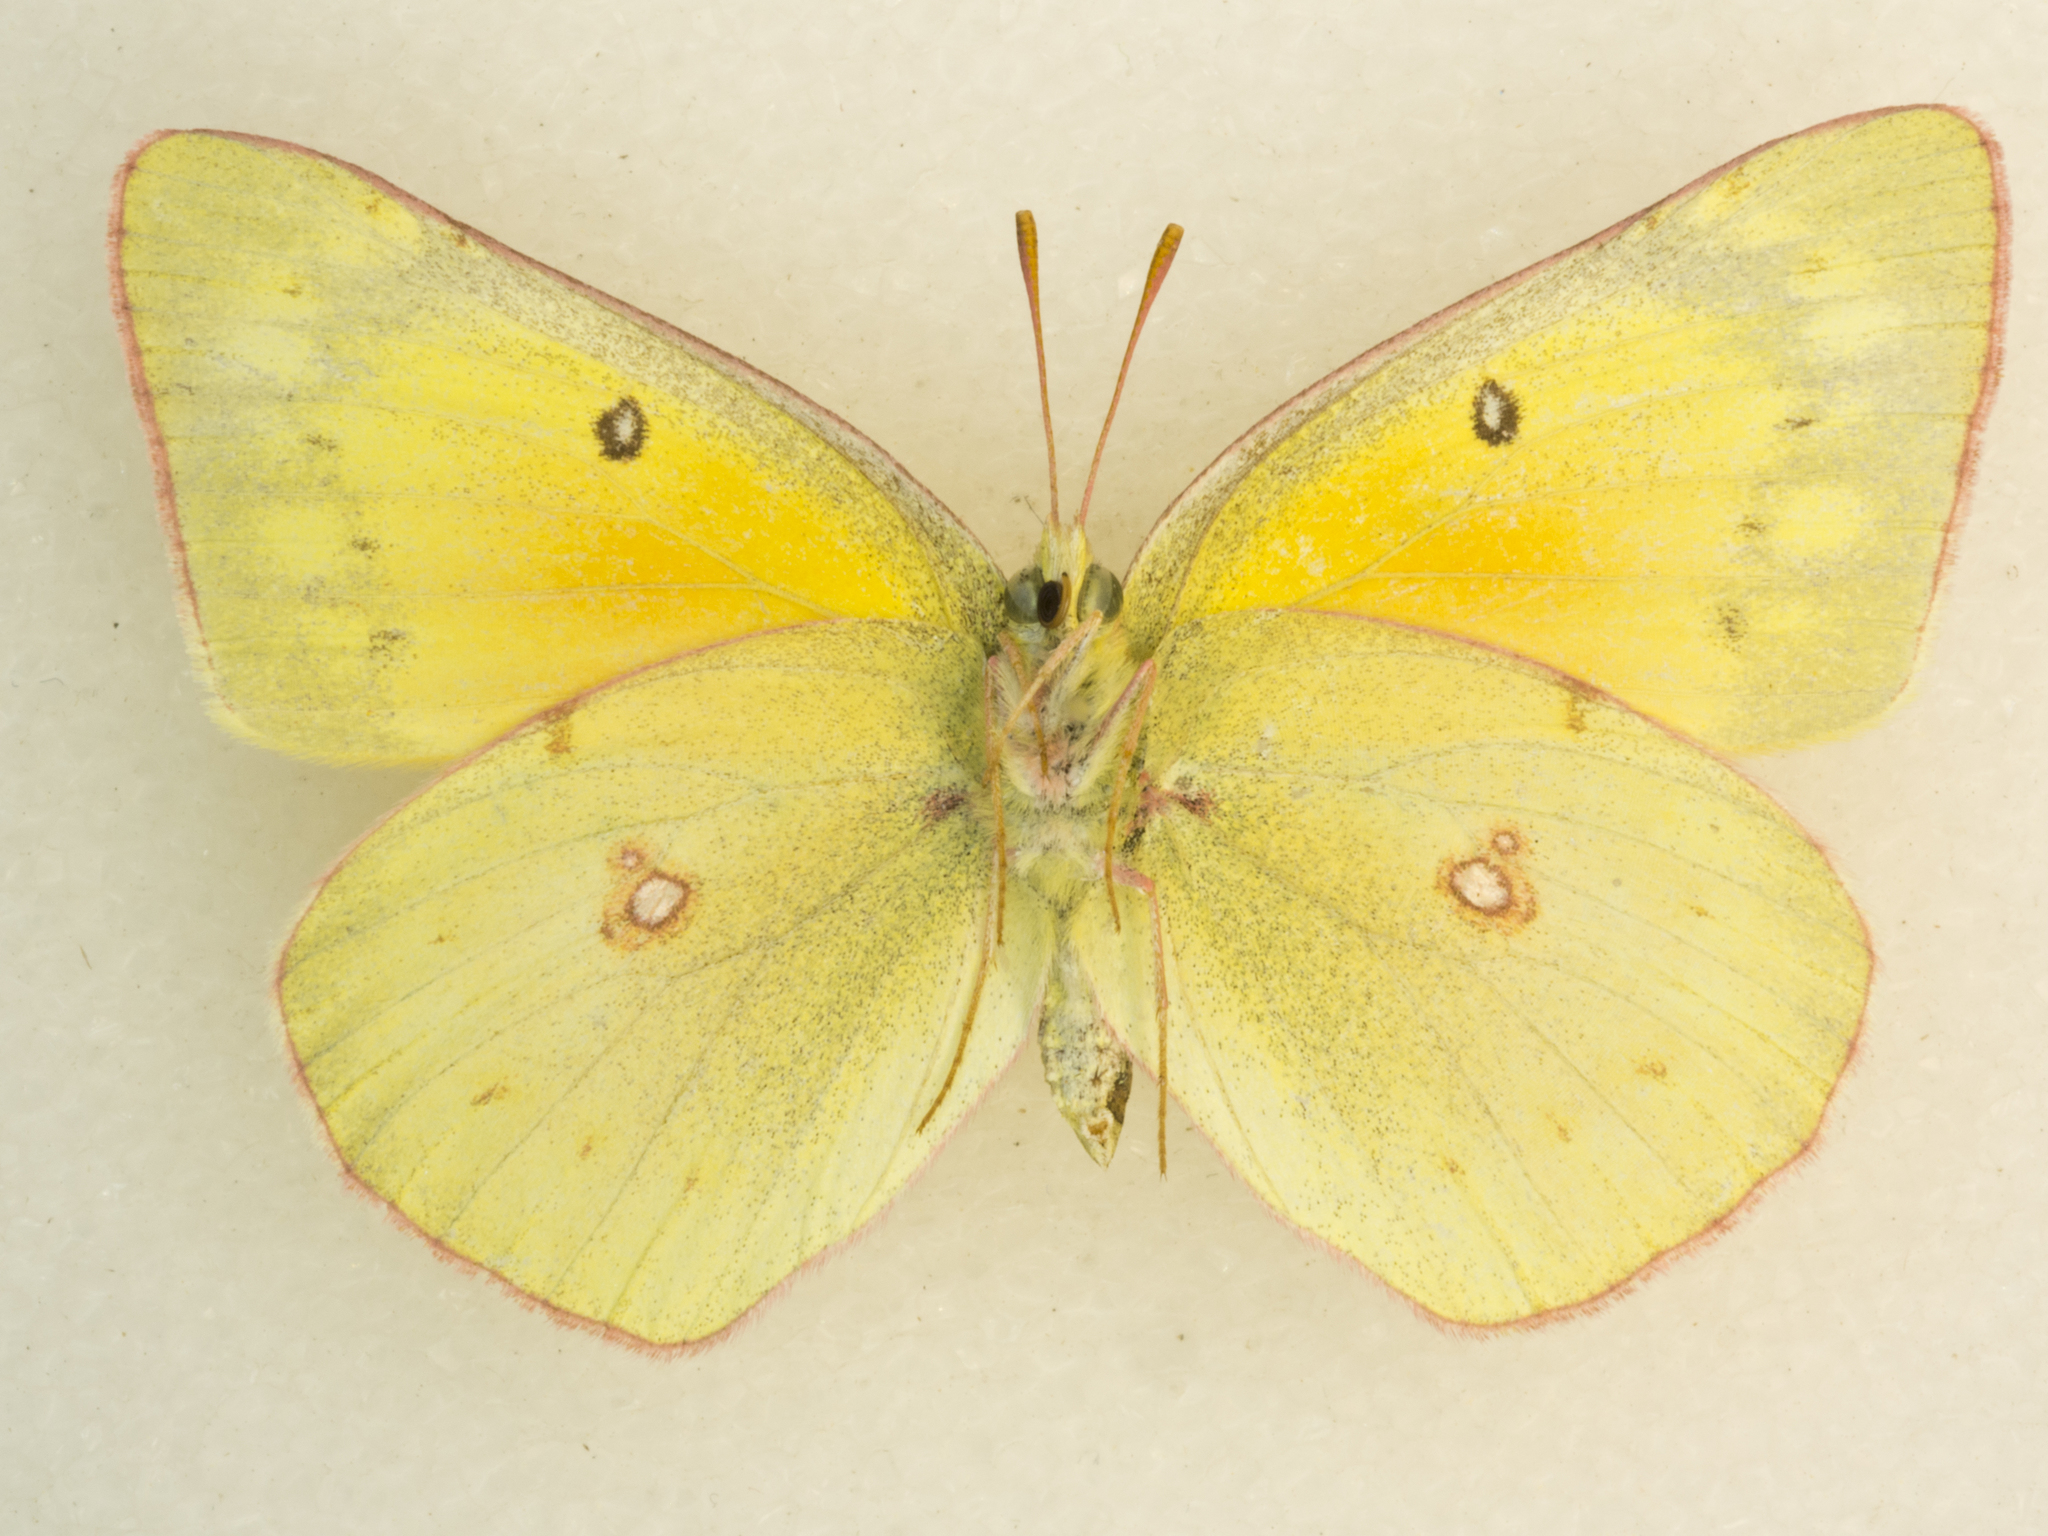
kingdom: Animalia
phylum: Arthropoda
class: Insecta
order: Lepidoptera
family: Pieridae
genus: Colias
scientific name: Colias eurytheme
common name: Alfalfa butterfly
